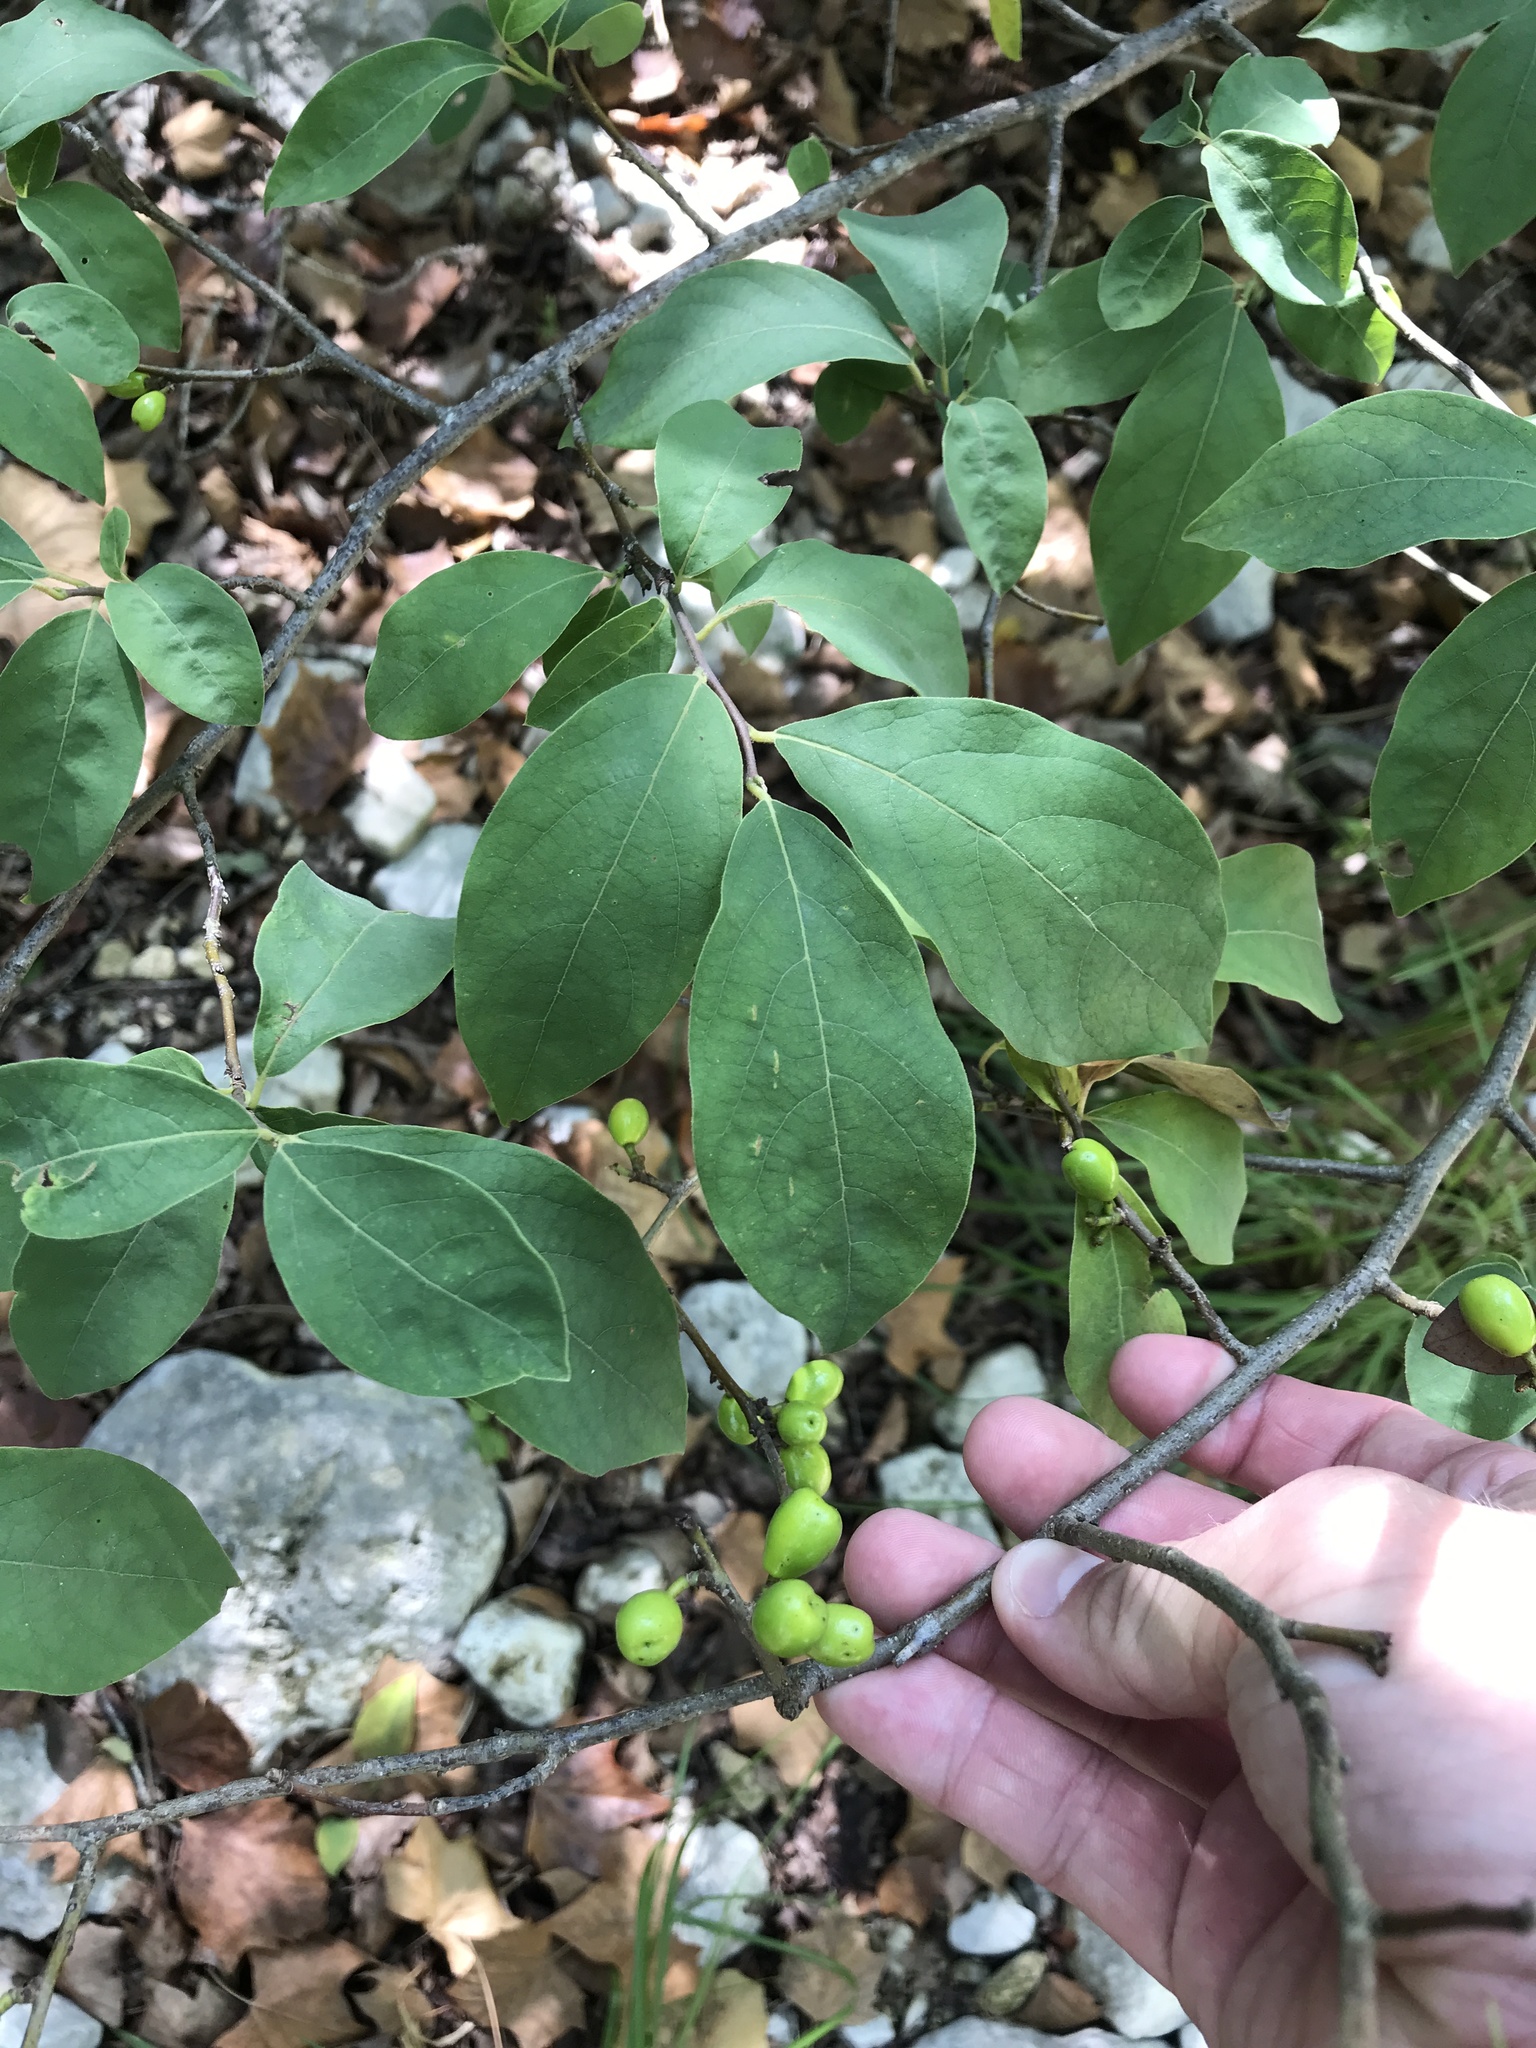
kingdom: Plantae
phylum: Tracheophyta
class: Magnoliopsida
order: Laurales
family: Lauraceae
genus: Lindera
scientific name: Lindera benzoin
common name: Spicebush
